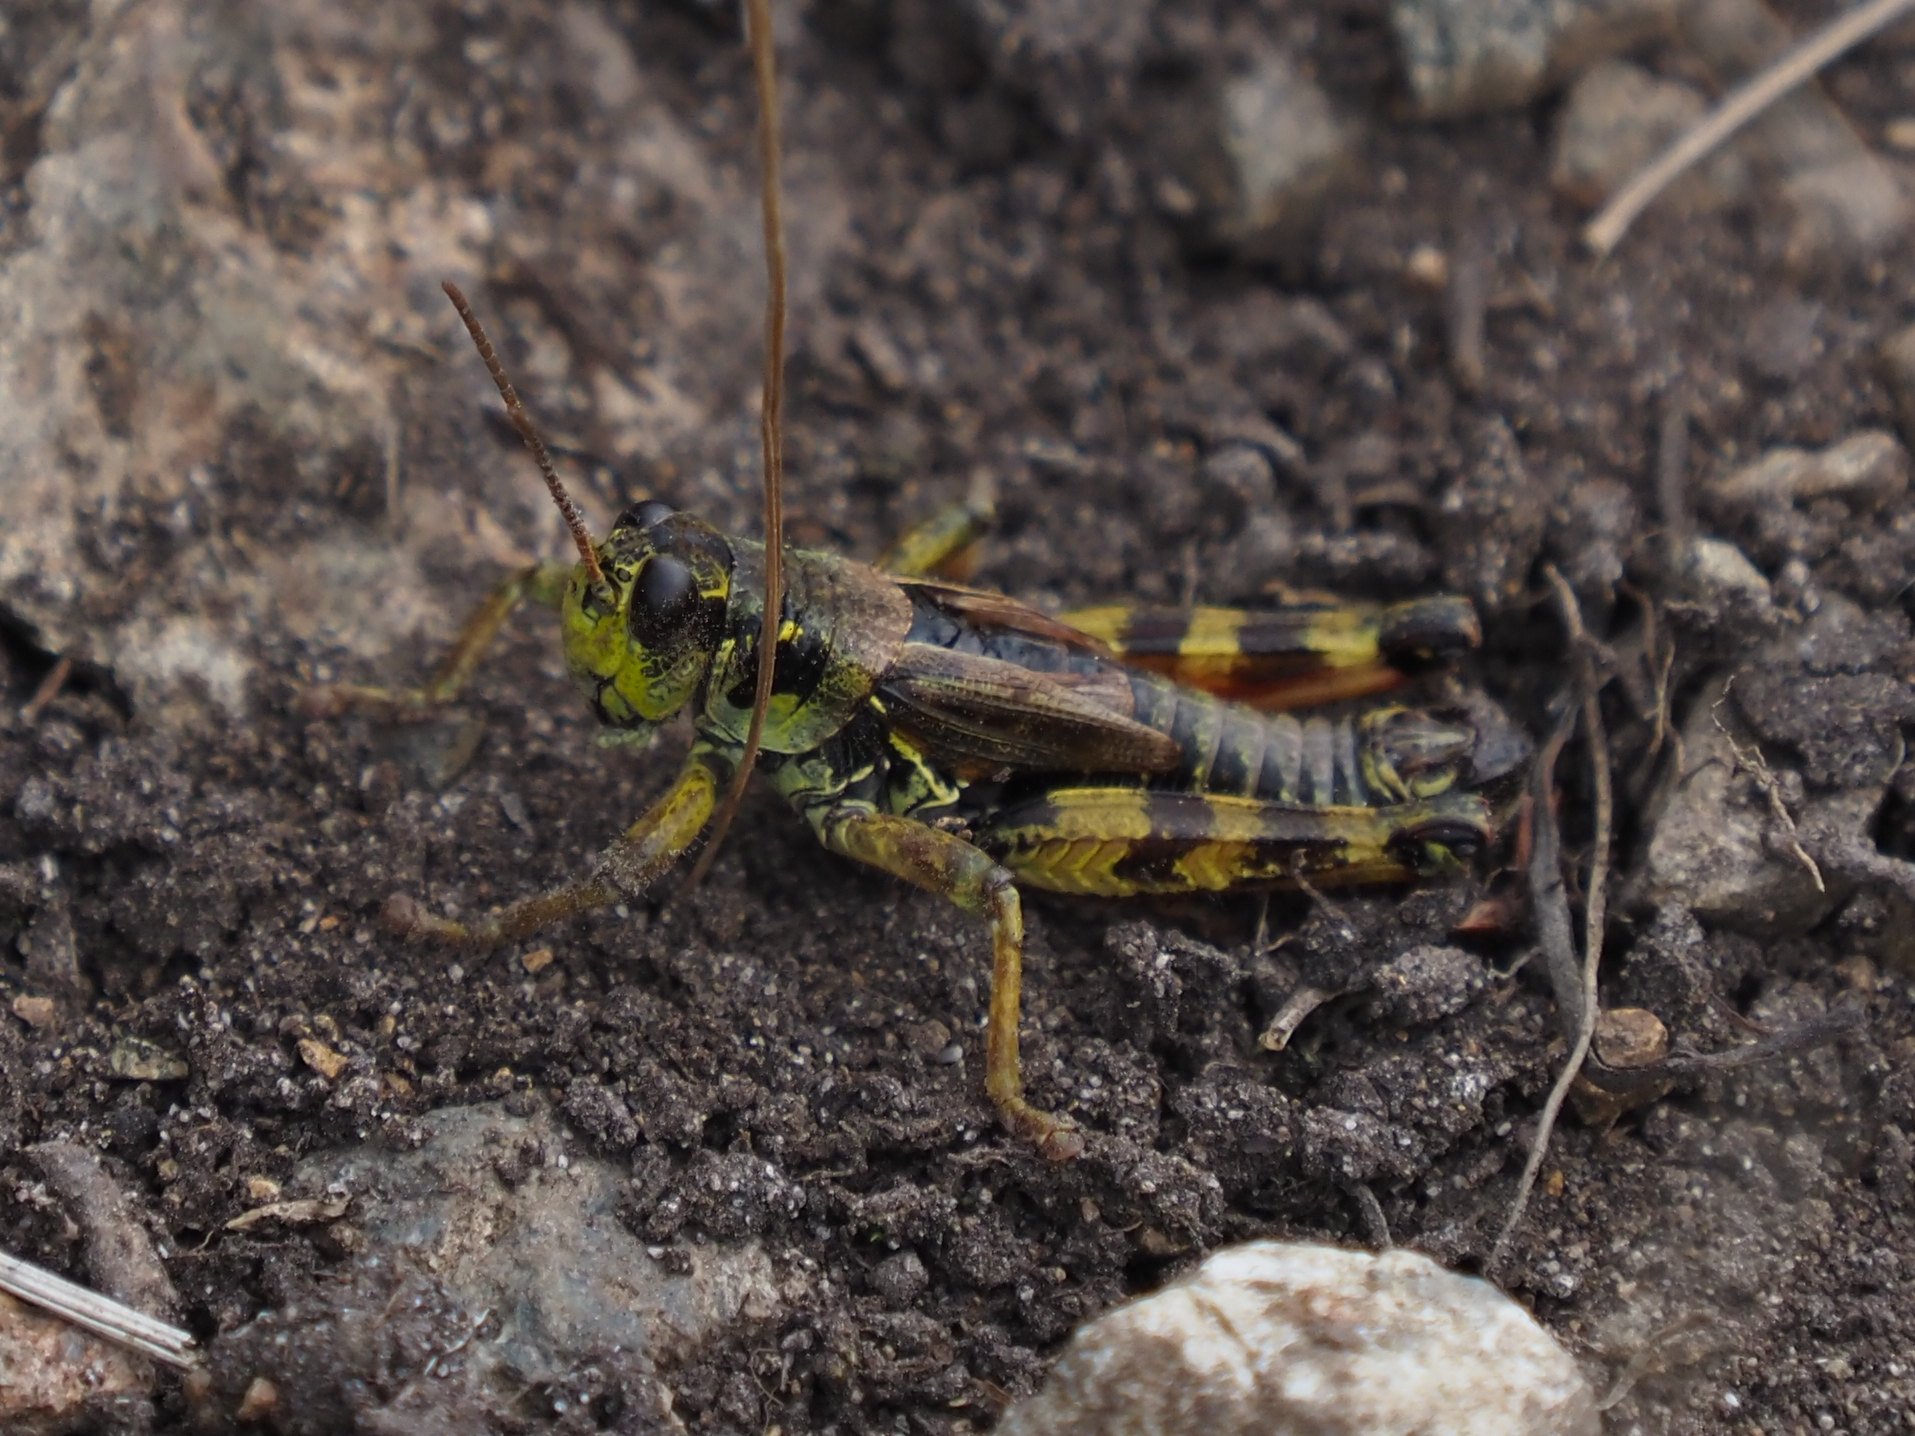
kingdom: Animalia
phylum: Arthropoda
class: Insecta
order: Orthoptera
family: Acrididae
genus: Bohemanella
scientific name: Bohemanella frigida
